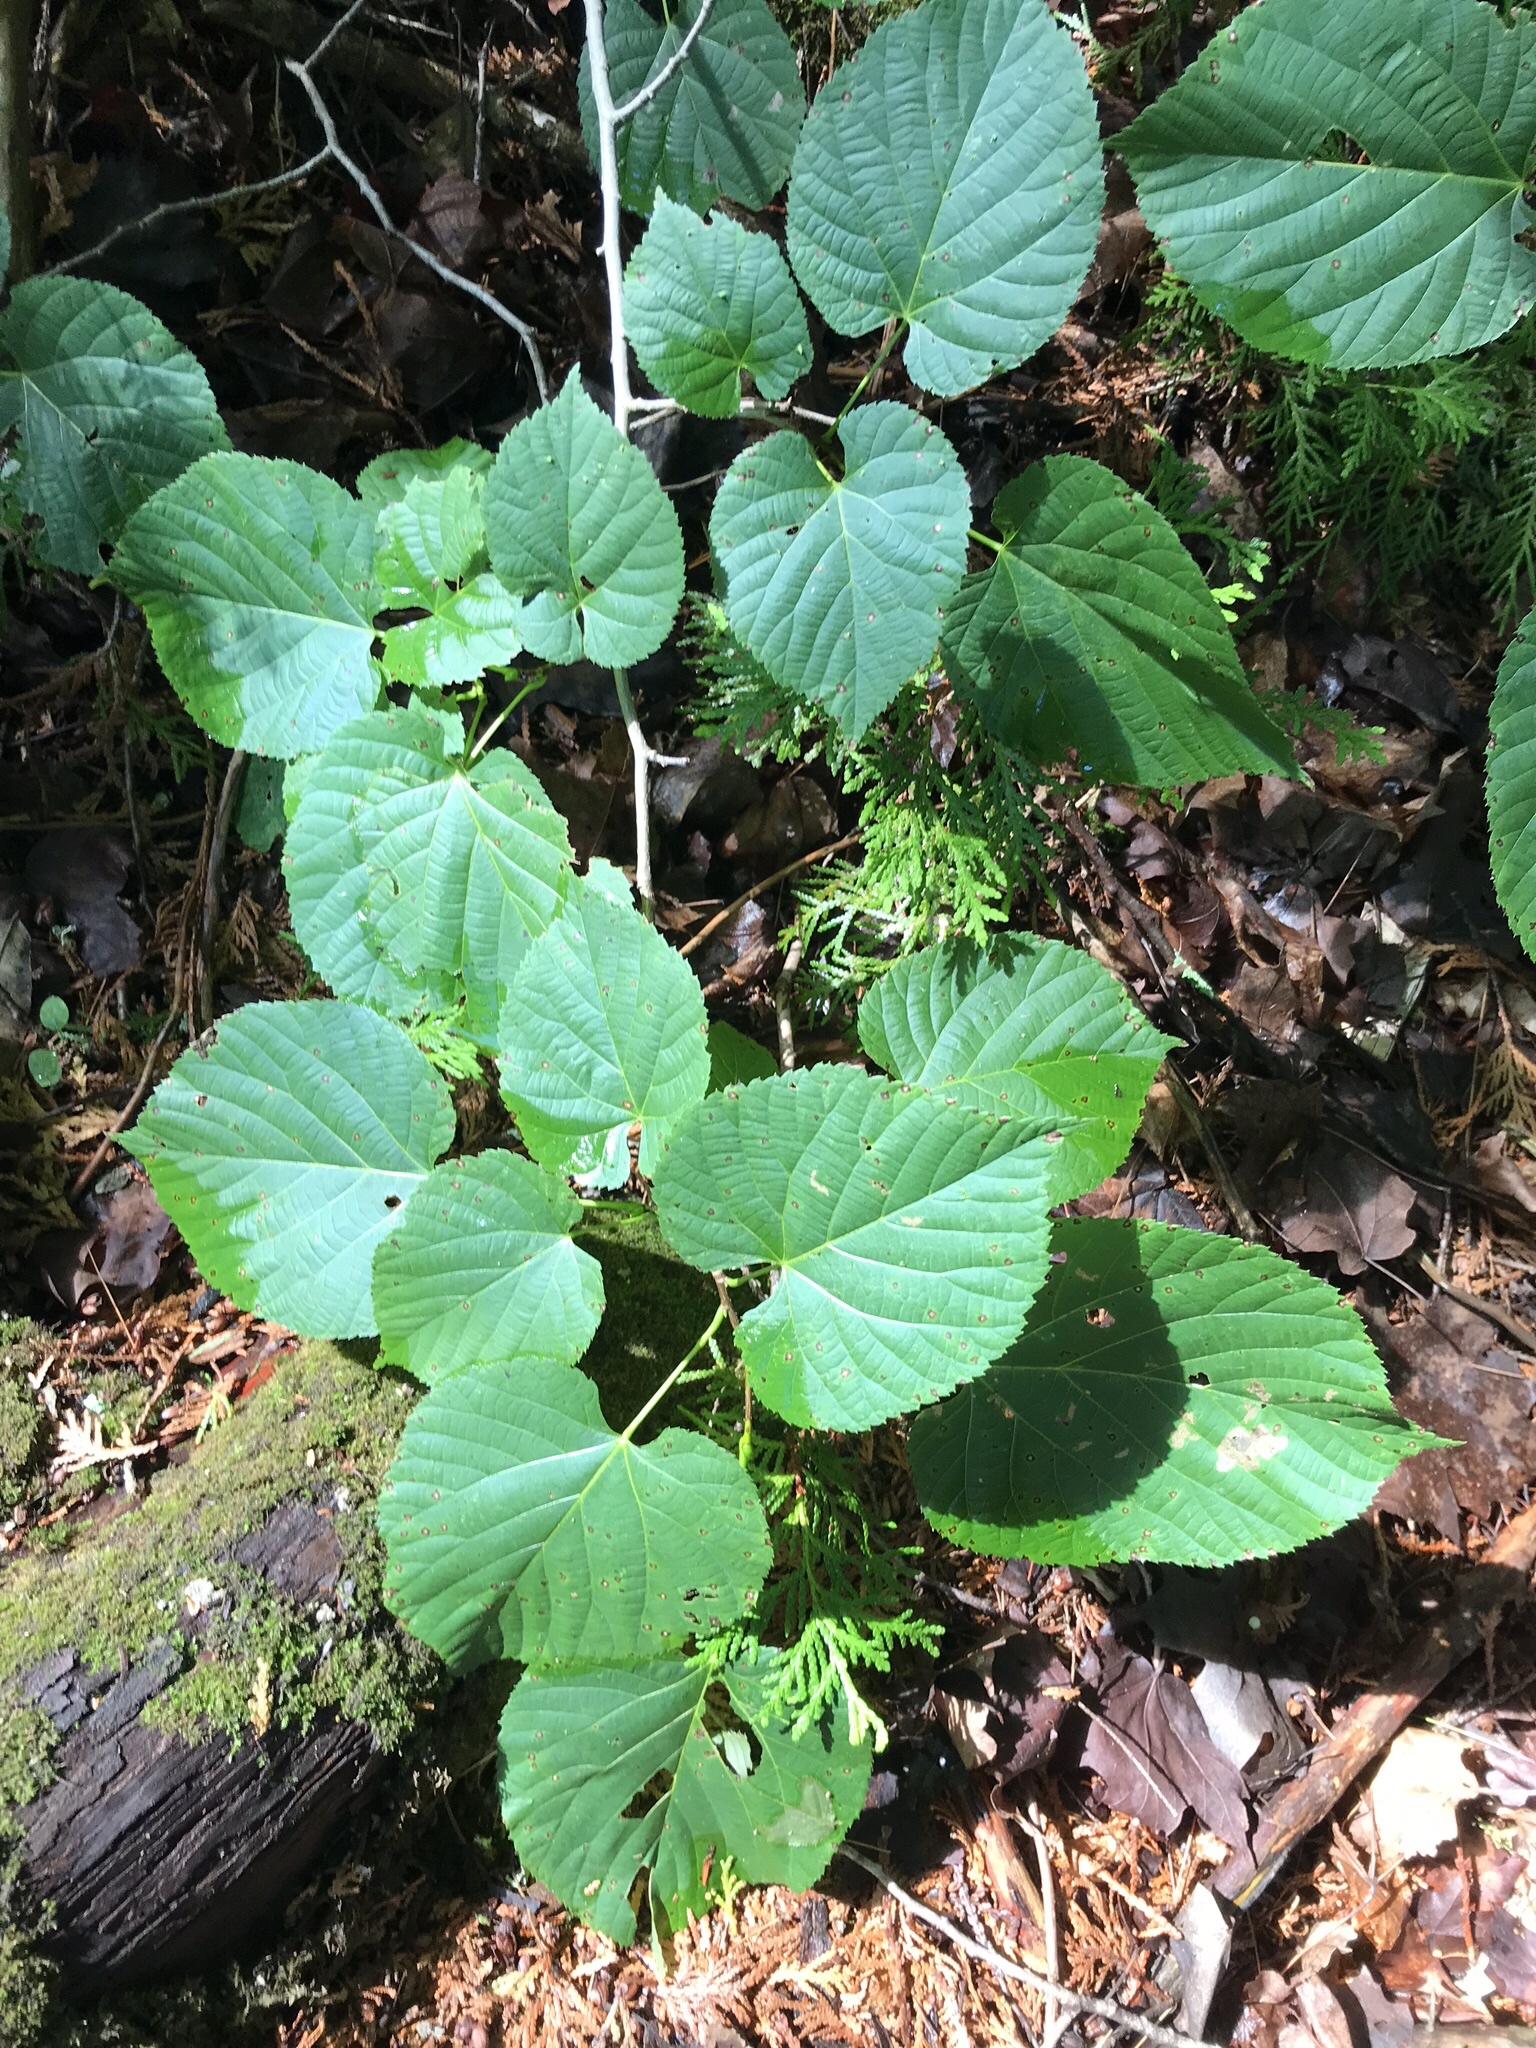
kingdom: Plantae
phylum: Tracheophyta
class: Magnoliopsida
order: Malvales
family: Malvaceae
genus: Tilia
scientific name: Tilia americana
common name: Basswood
